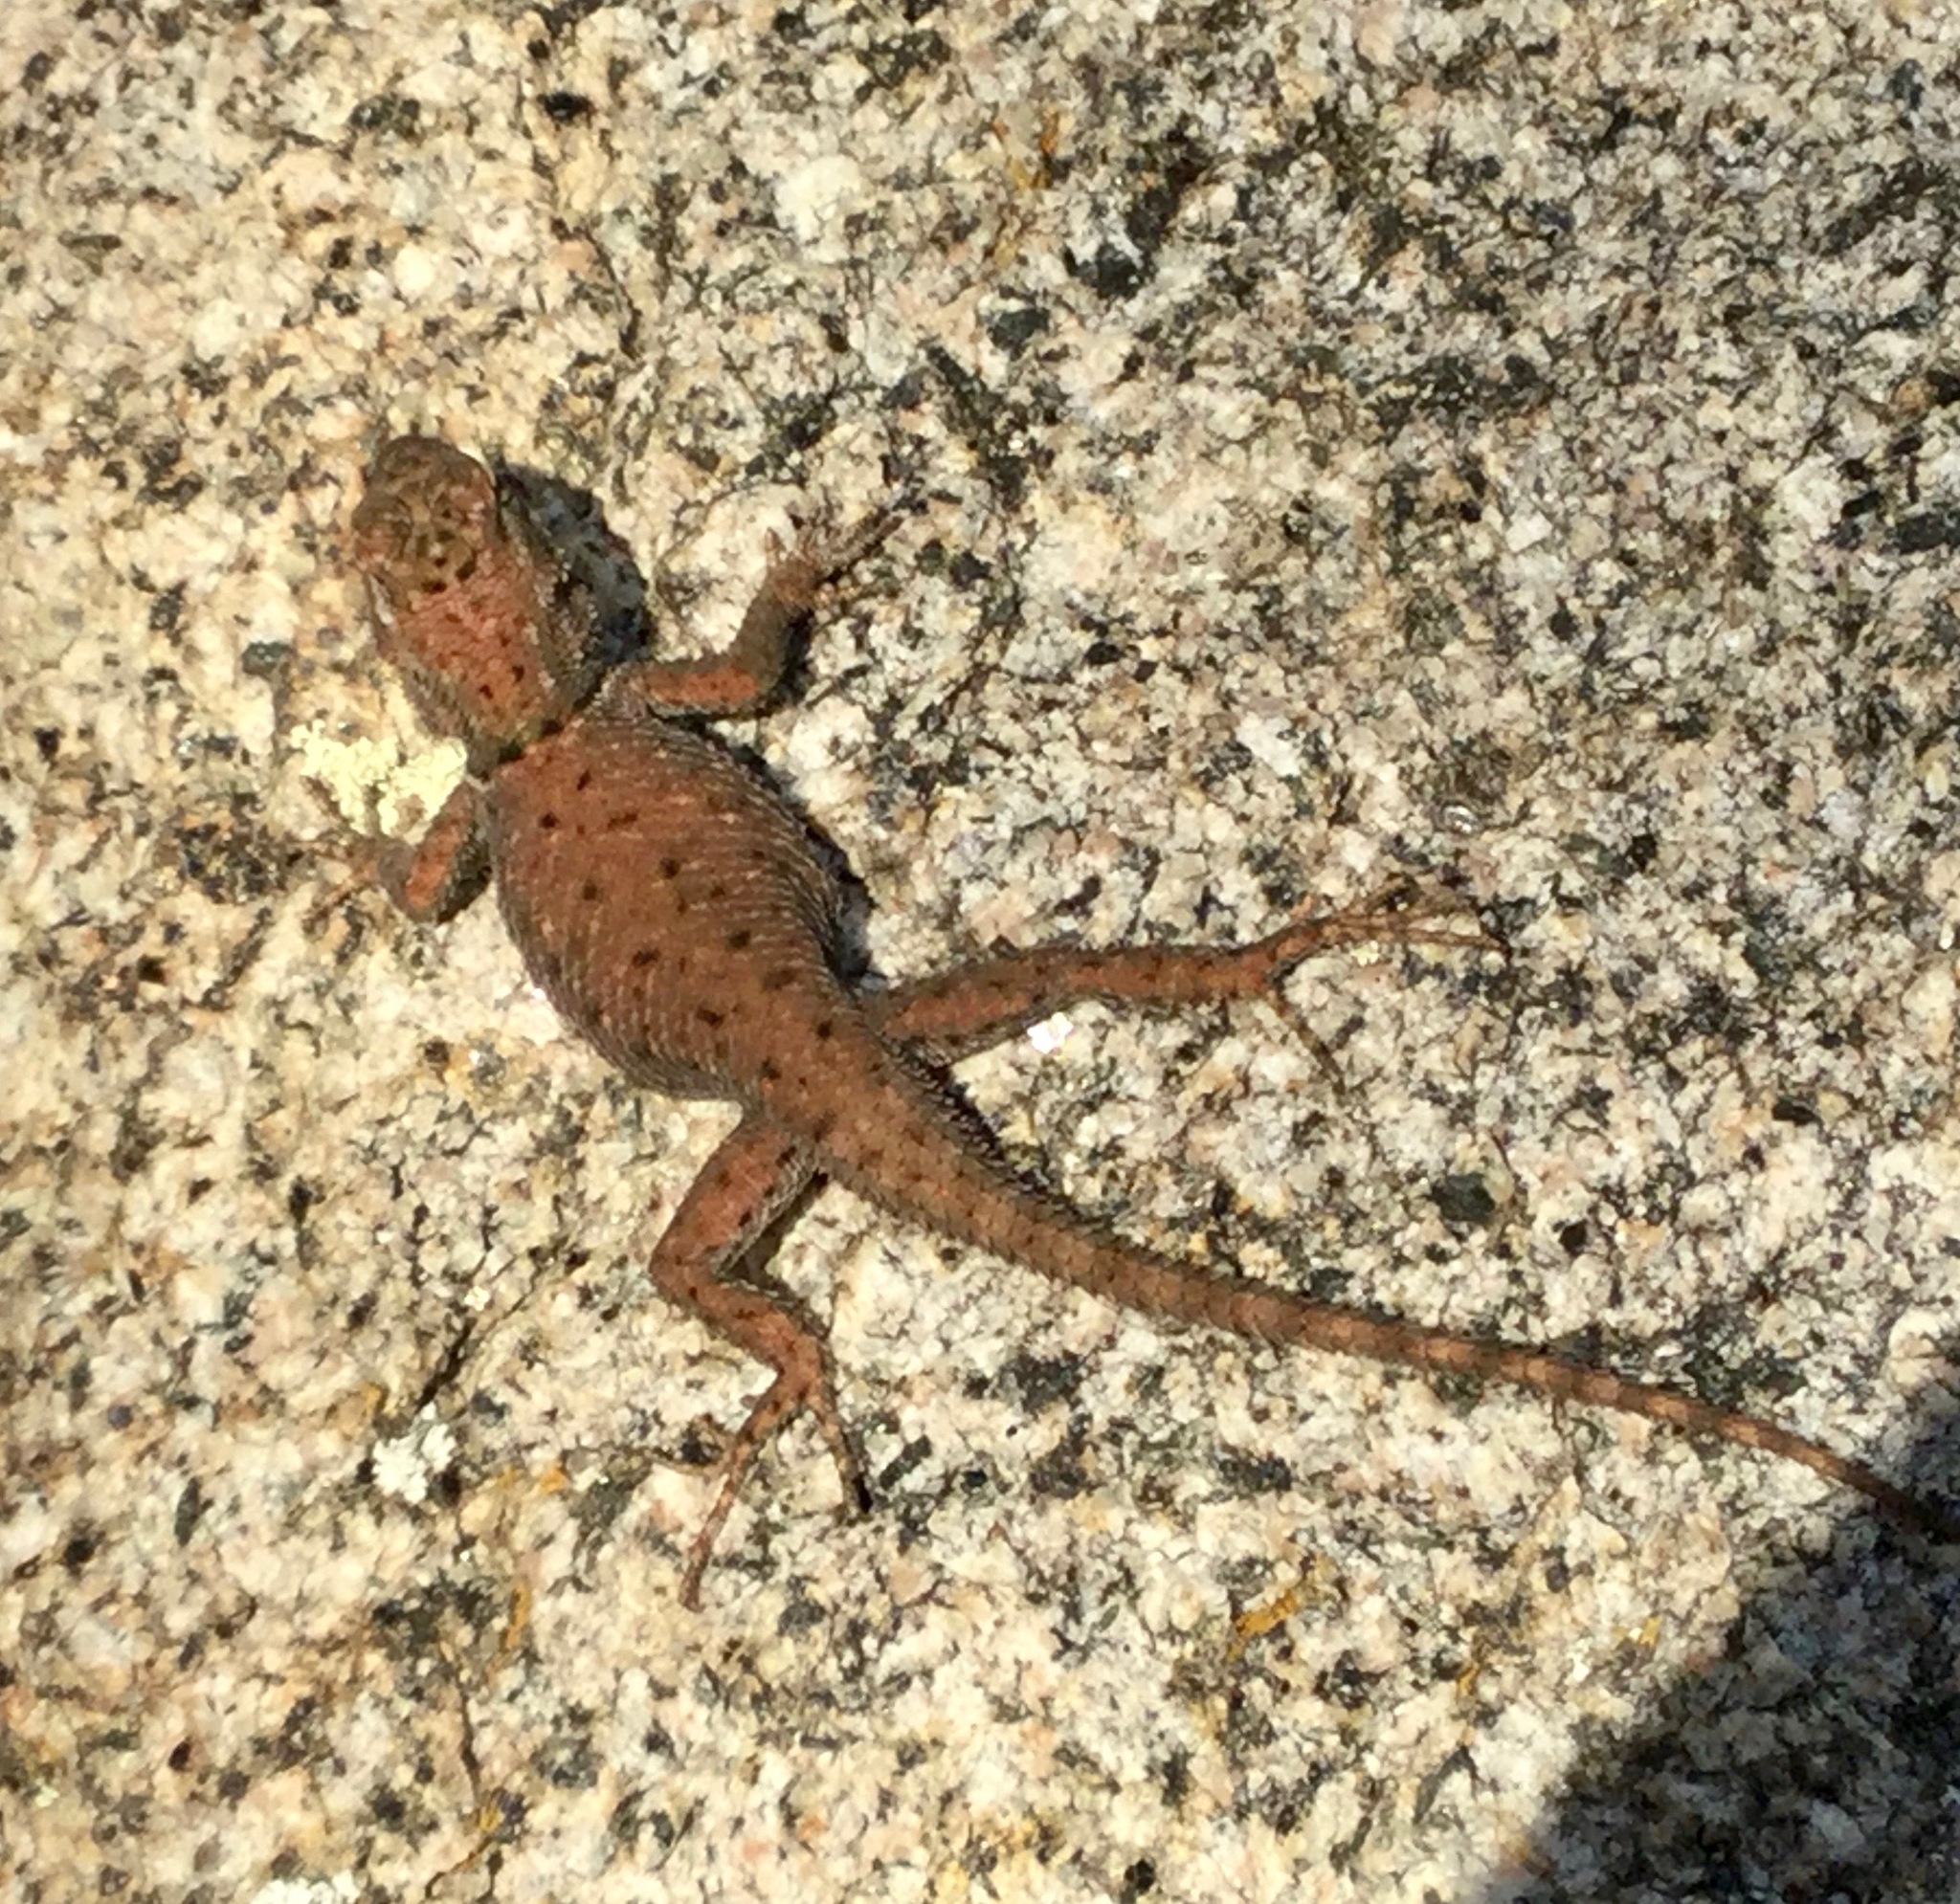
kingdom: Animalia
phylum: Chordata
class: Squamata
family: Phrynosomatidae
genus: Sceloporus
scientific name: Sceloporus jarrovii
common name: Yarrow's spiny lizard
